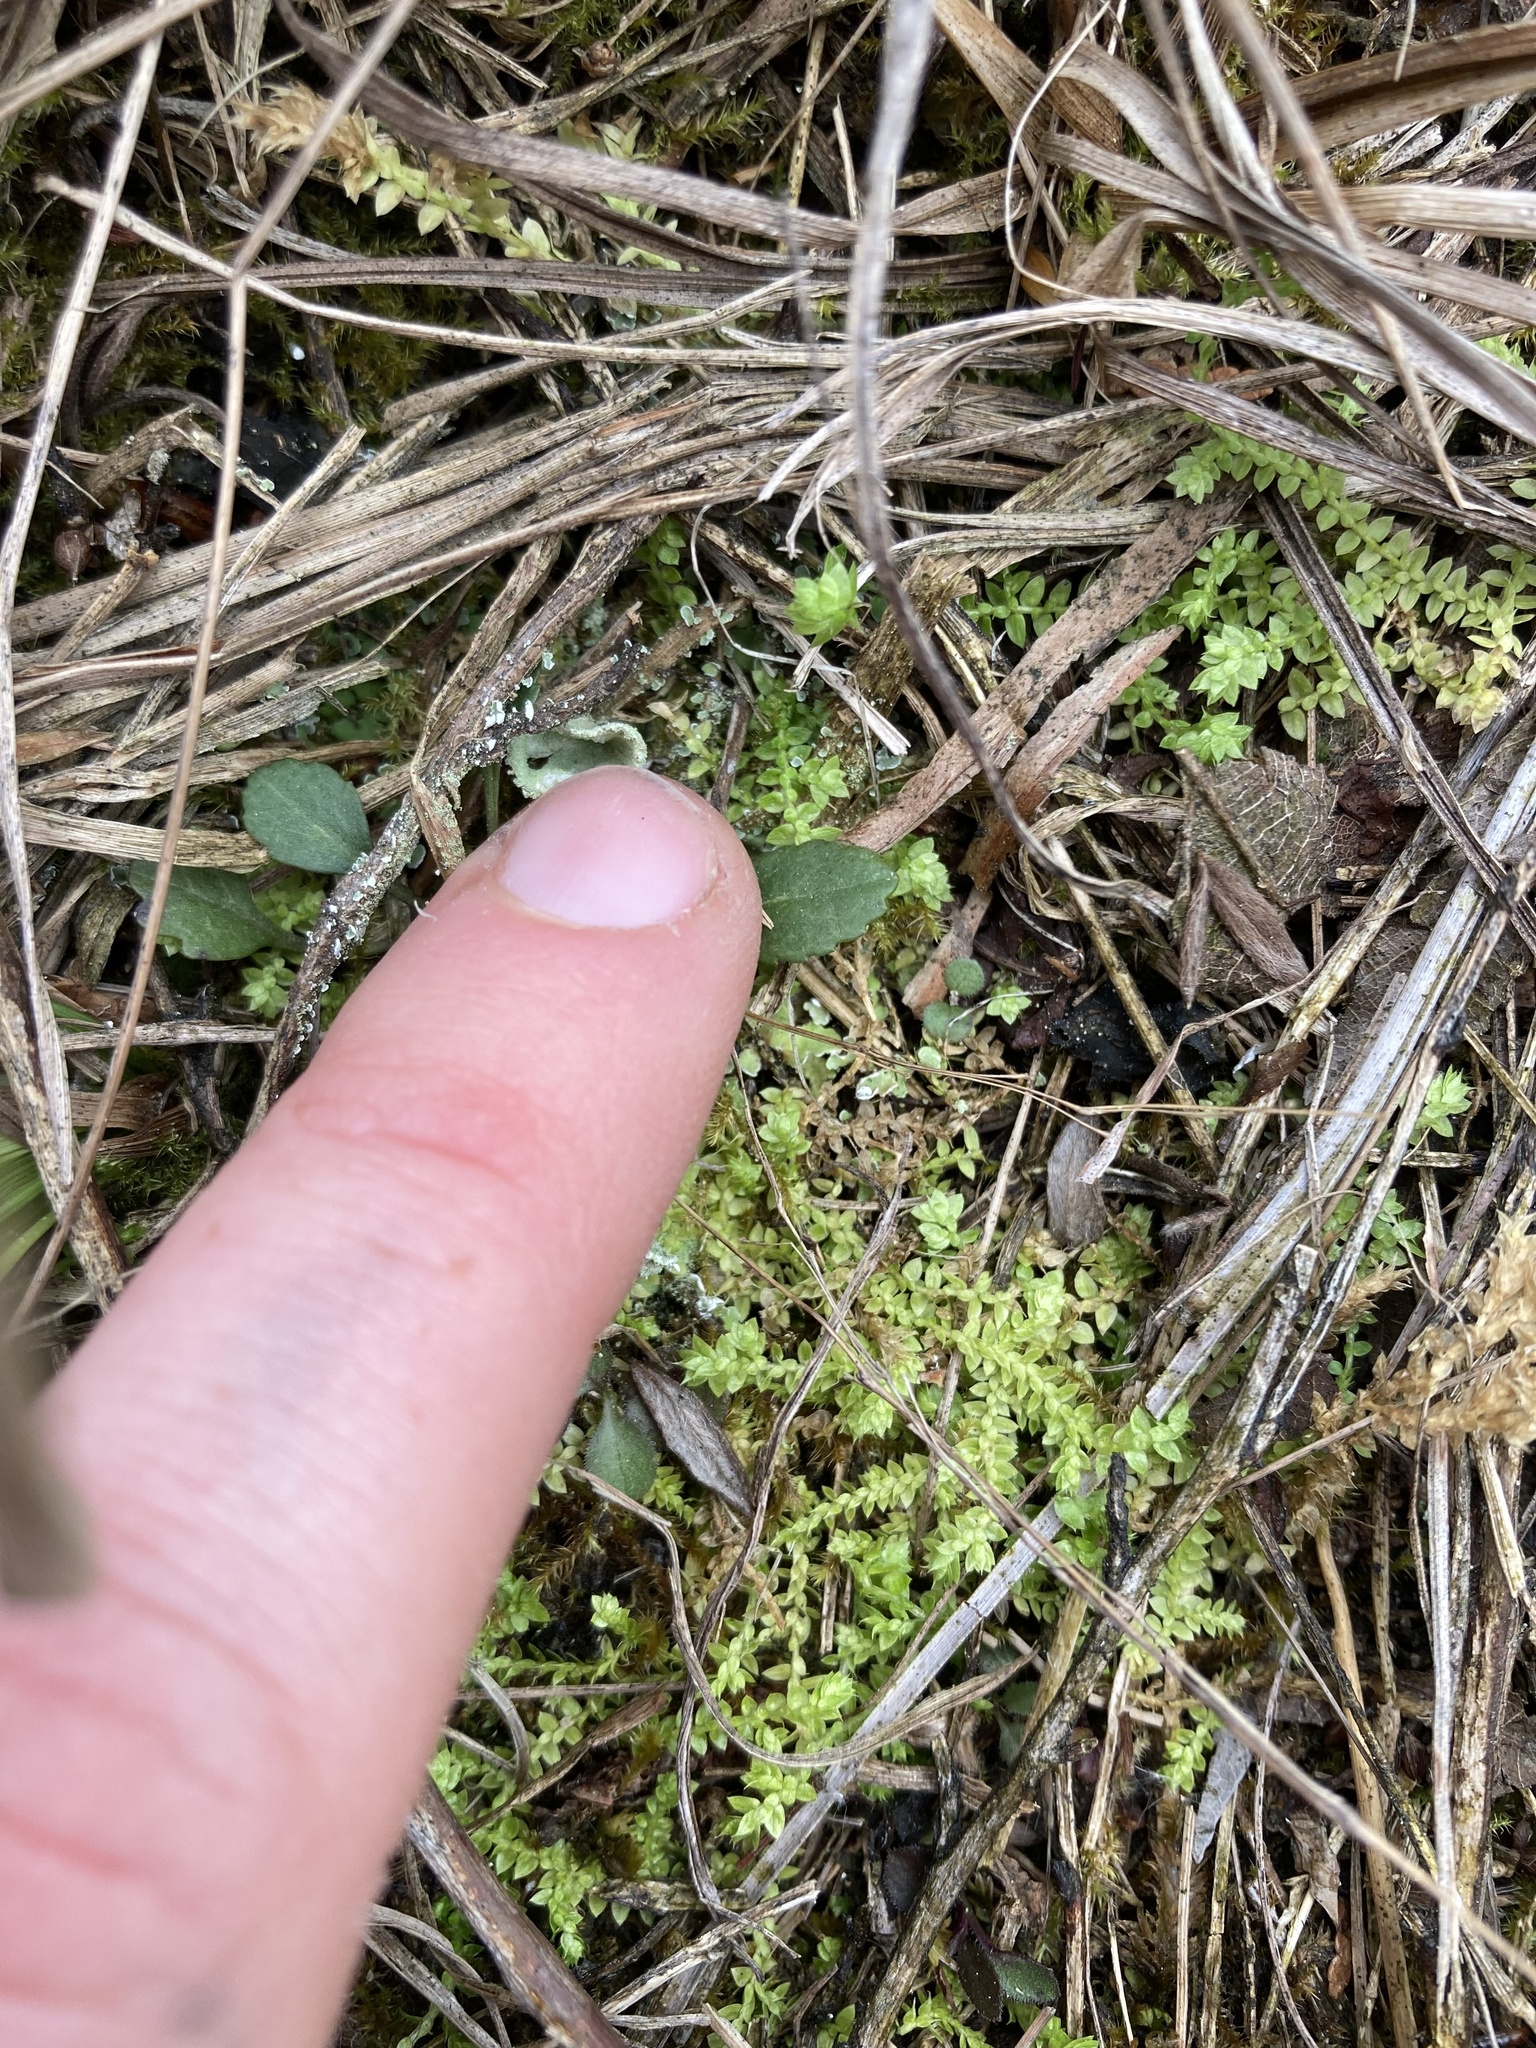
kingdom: Plantae
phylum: Tracheophyta
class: Lycopodiopsida
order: Selaginellales
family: Selaginellaceae
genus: Selaginella
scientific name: Selaginella eclipes
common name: Buck's meadow spikemoss
